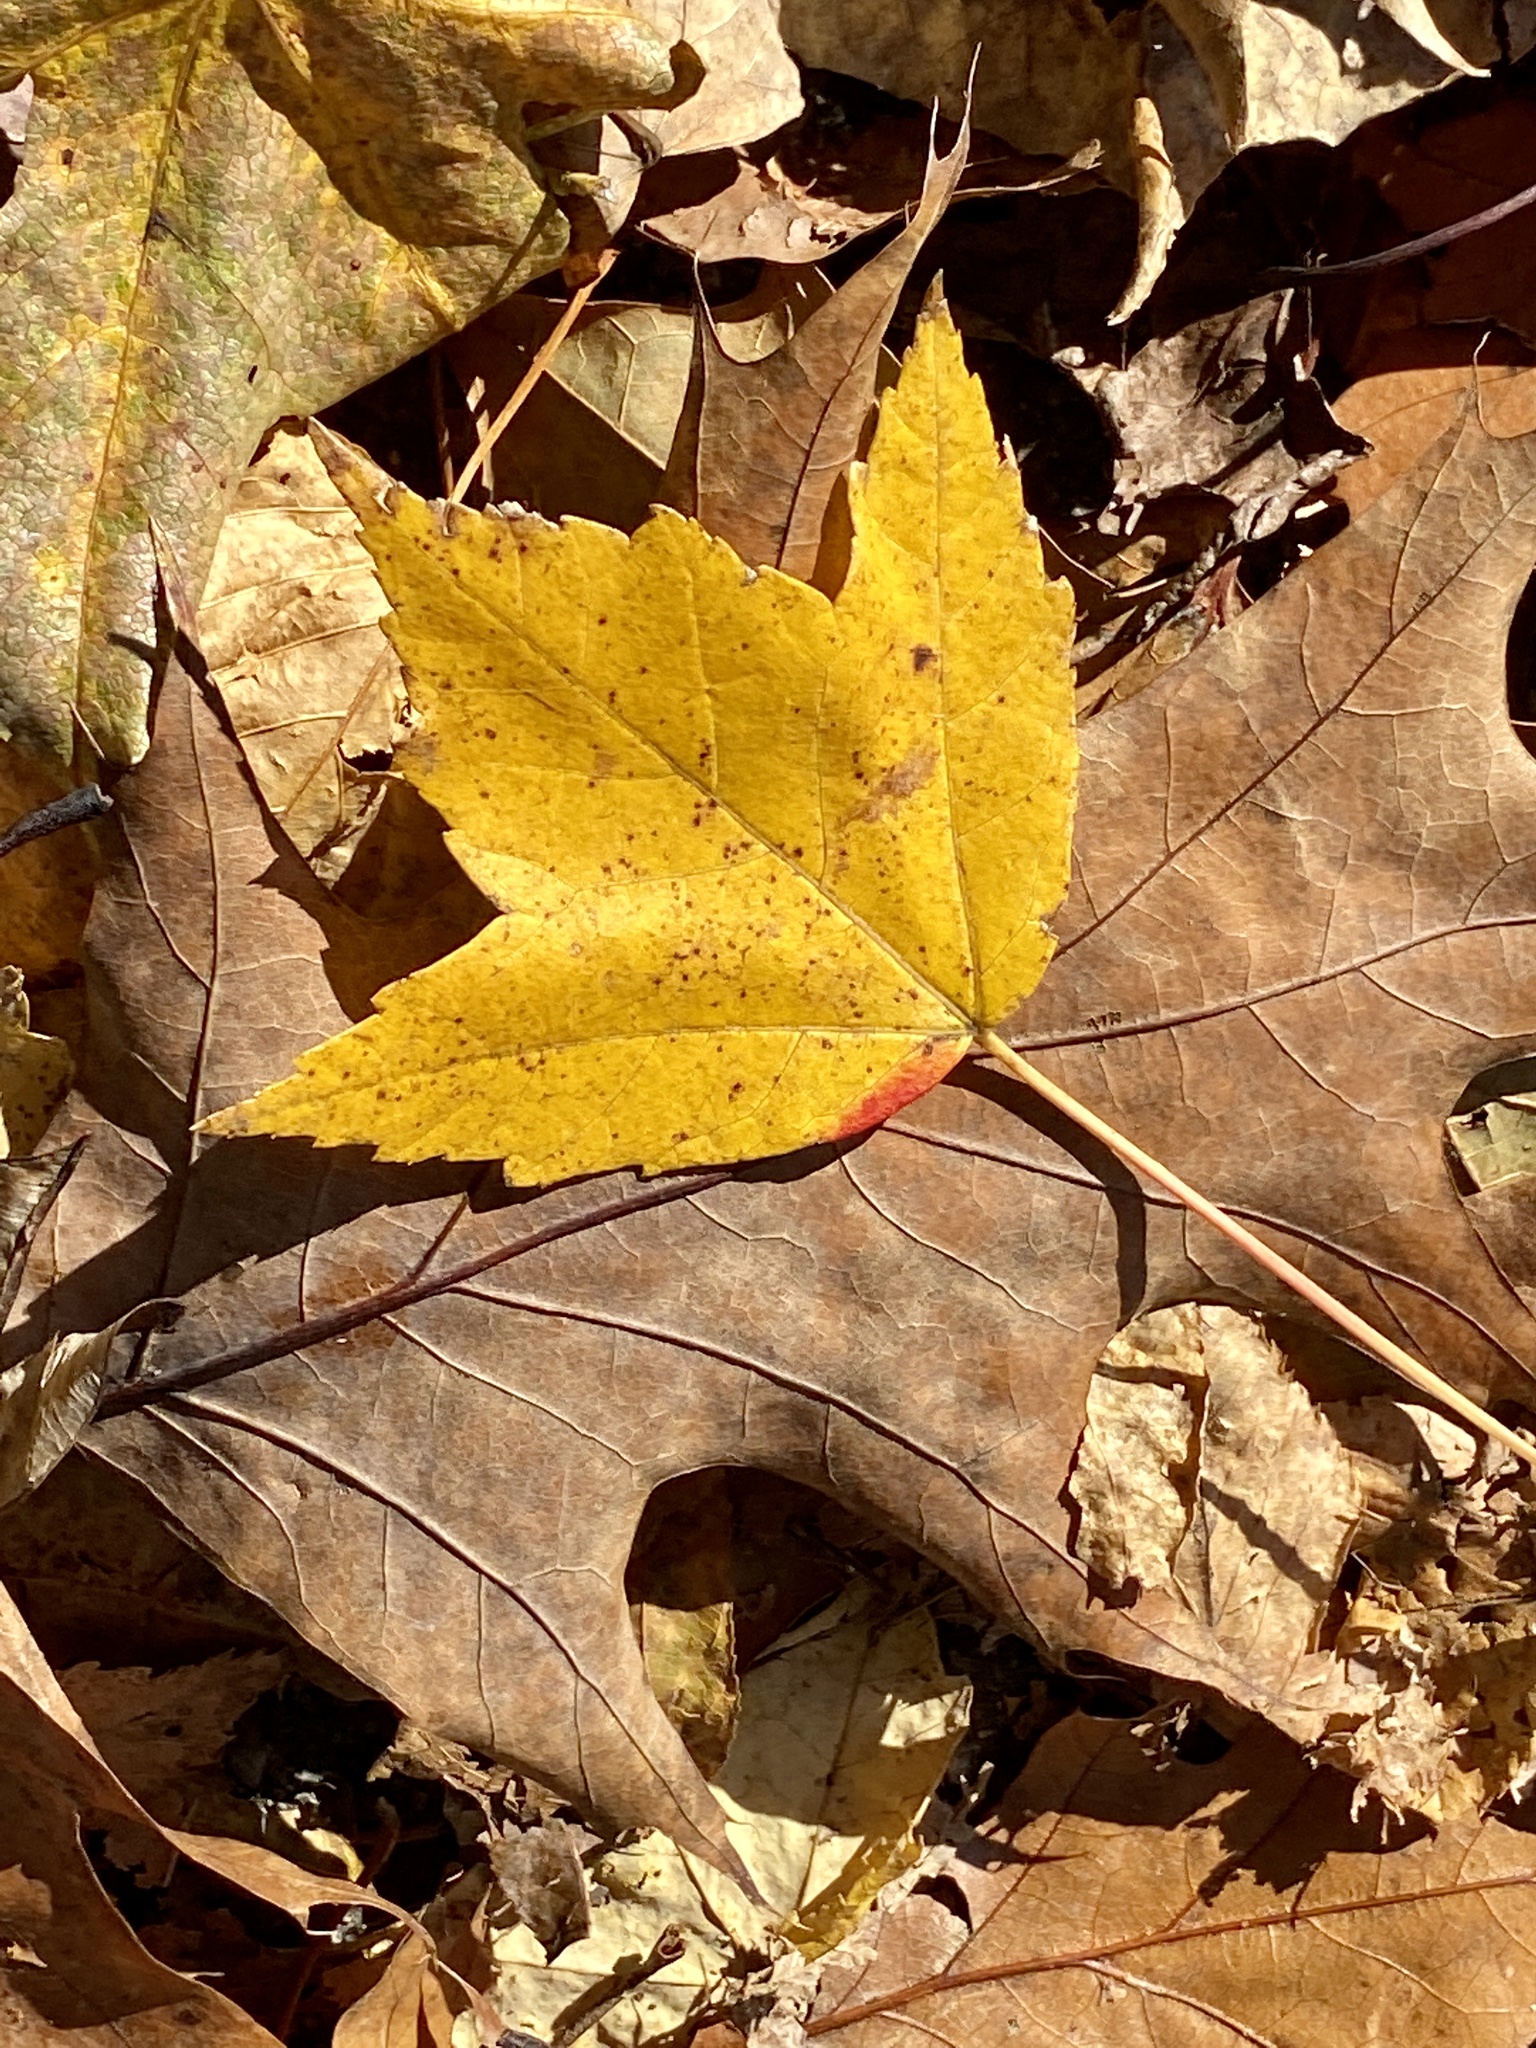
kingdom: Plantae
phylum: Tracheophyta
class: Magnoliopsida
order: Sapindales
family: Sapindaceae
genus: Acer
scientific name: Acer rubrum
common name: Red maple
